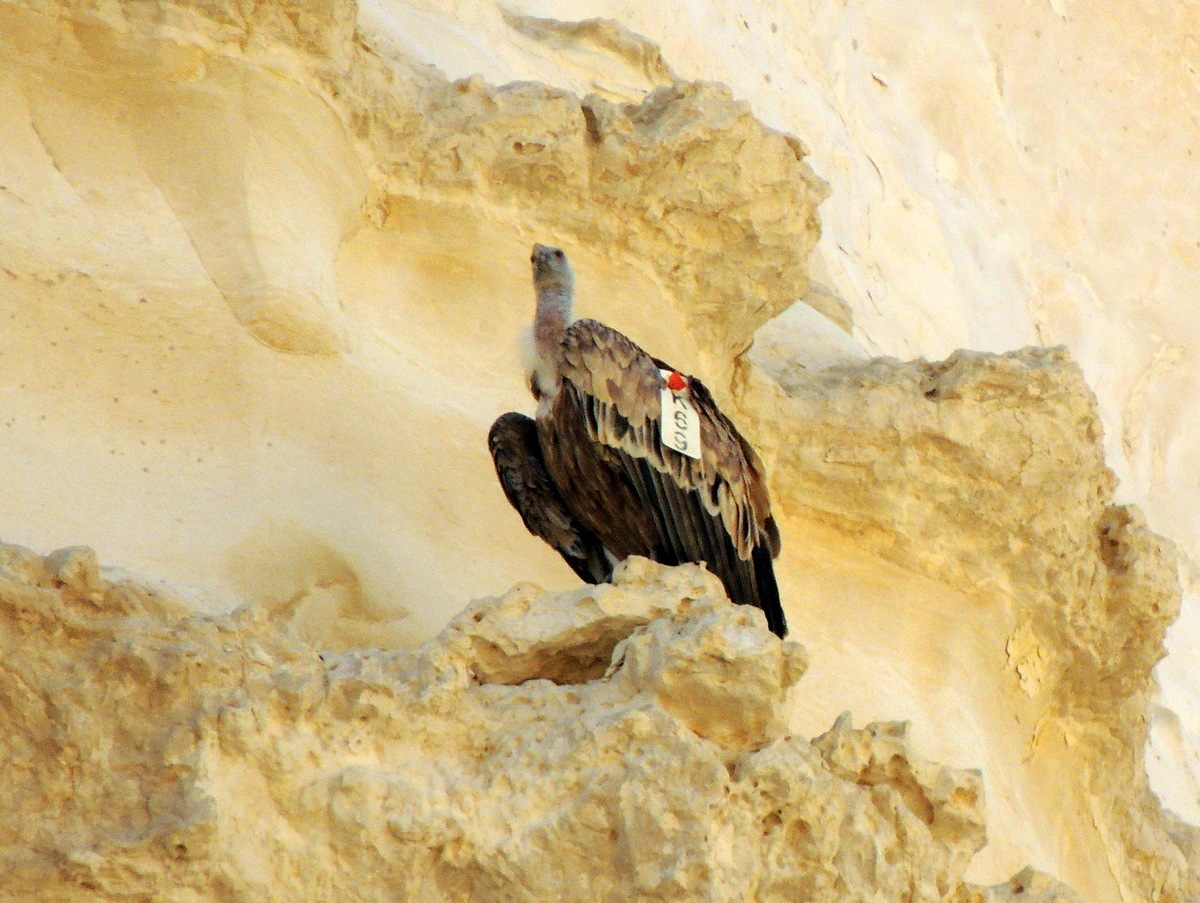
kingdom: Animalia
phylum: Chordata
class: Aves
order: Accipitriformes
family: Accipitridae
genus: Gyps
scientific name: Gyps fulvus
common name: Griffon vulture
